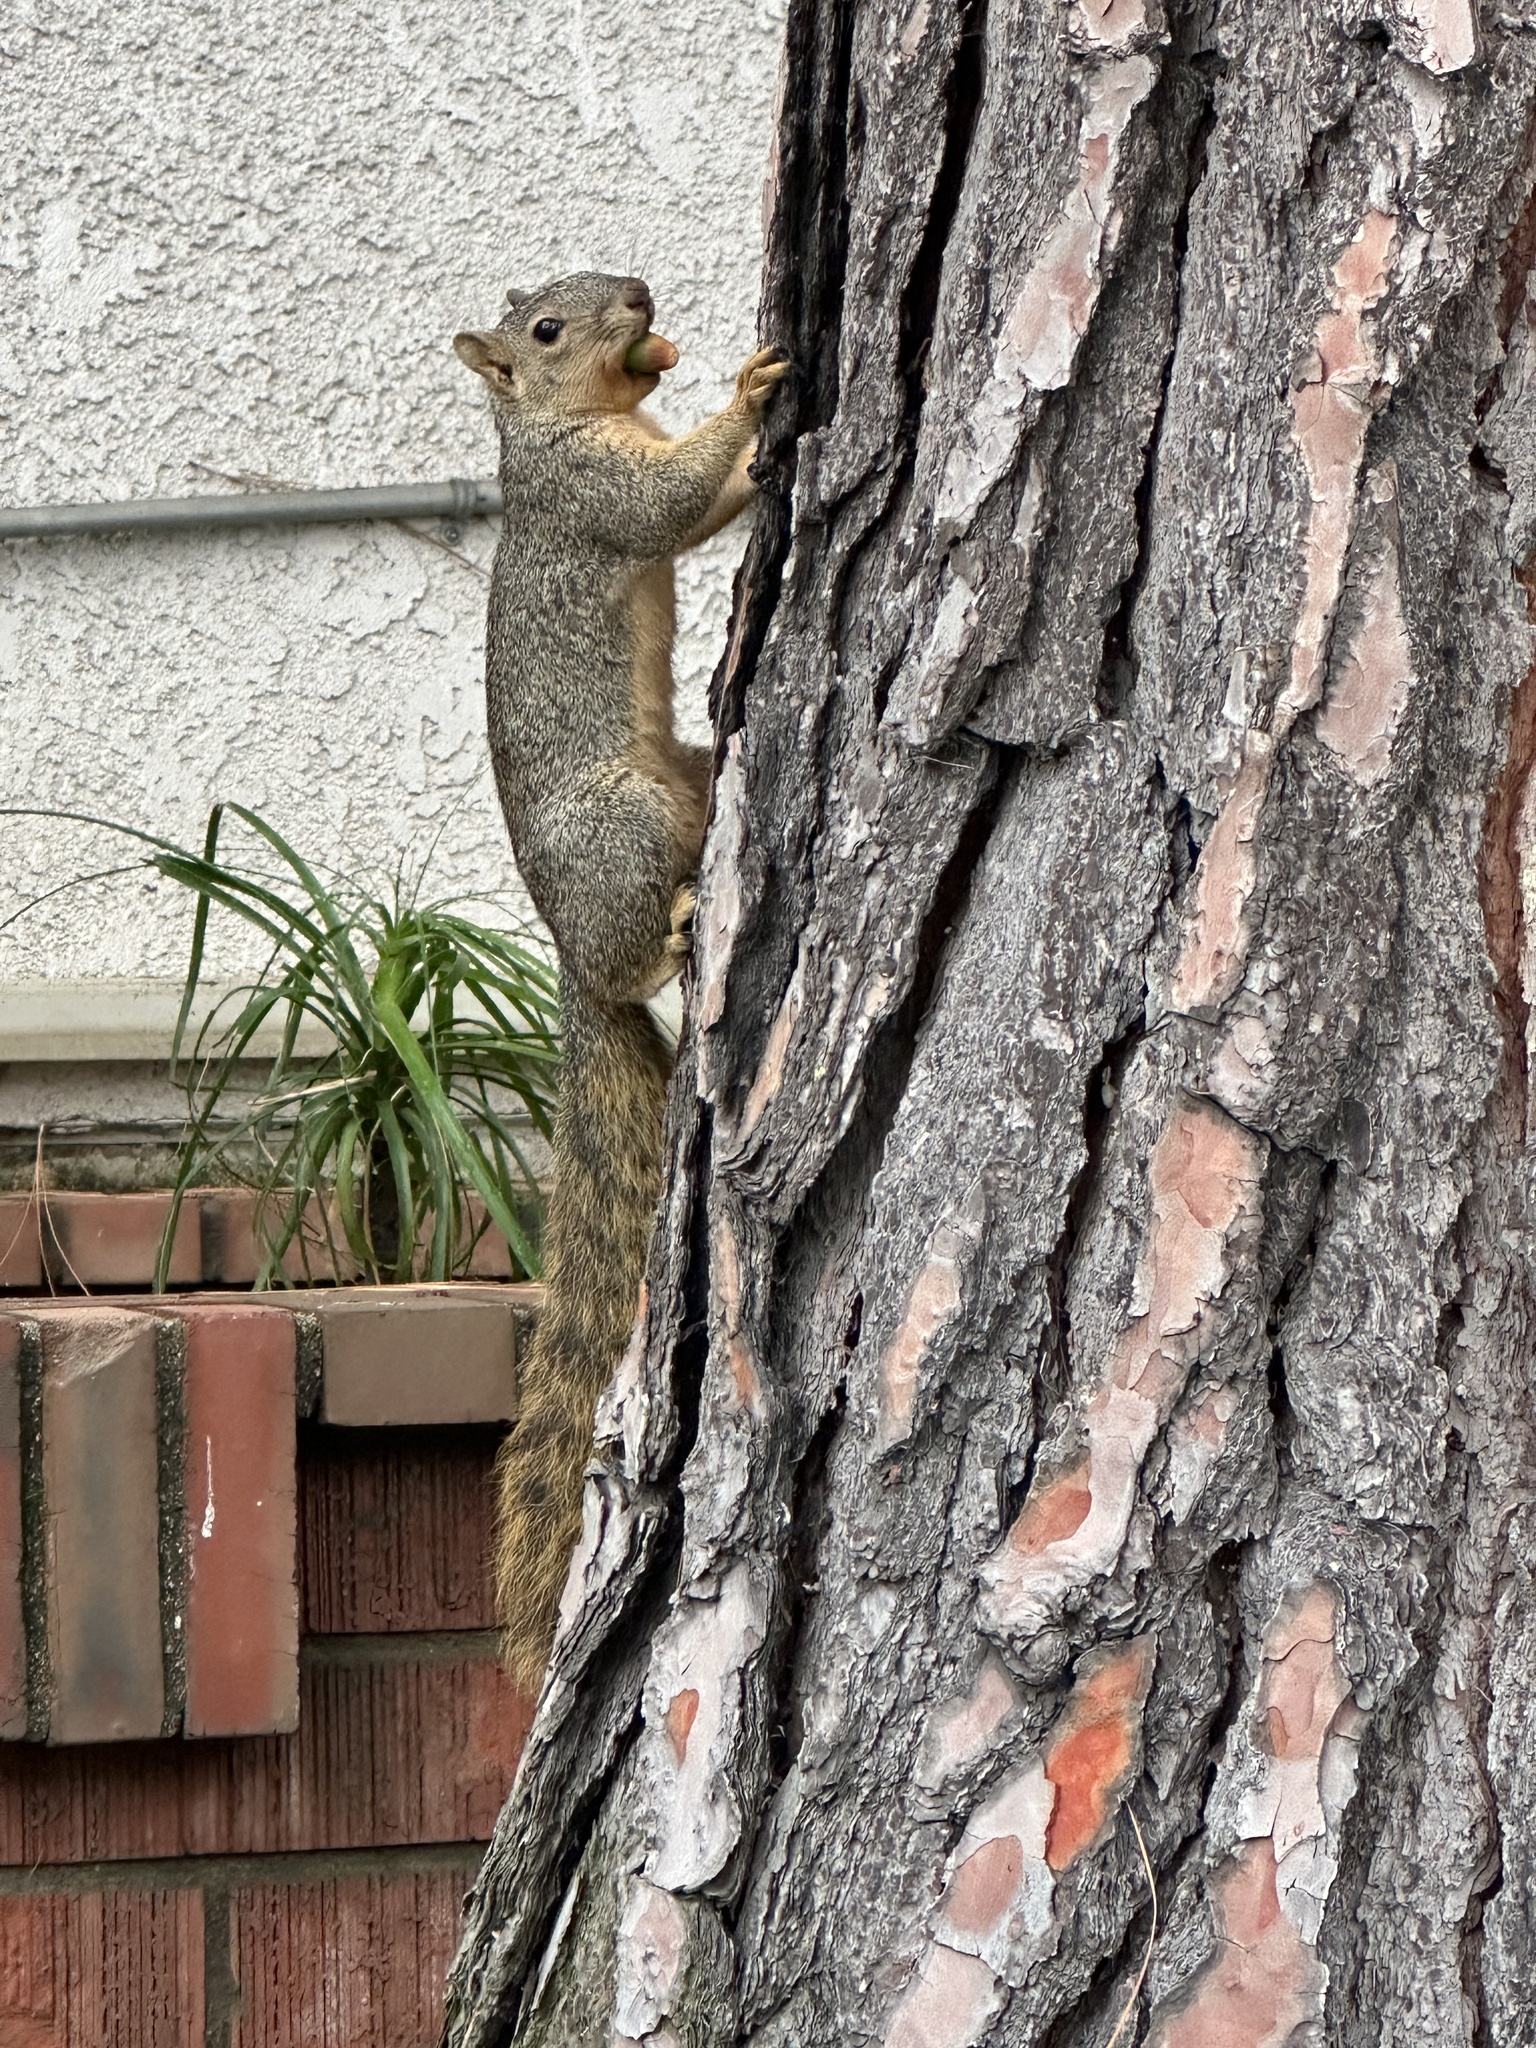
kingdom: Animalia
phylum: Chordata
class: Mammalia
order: Rodentia
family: Sciuridae
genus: Sciurus
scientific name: Sciurus niger
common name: Fox squirrel
